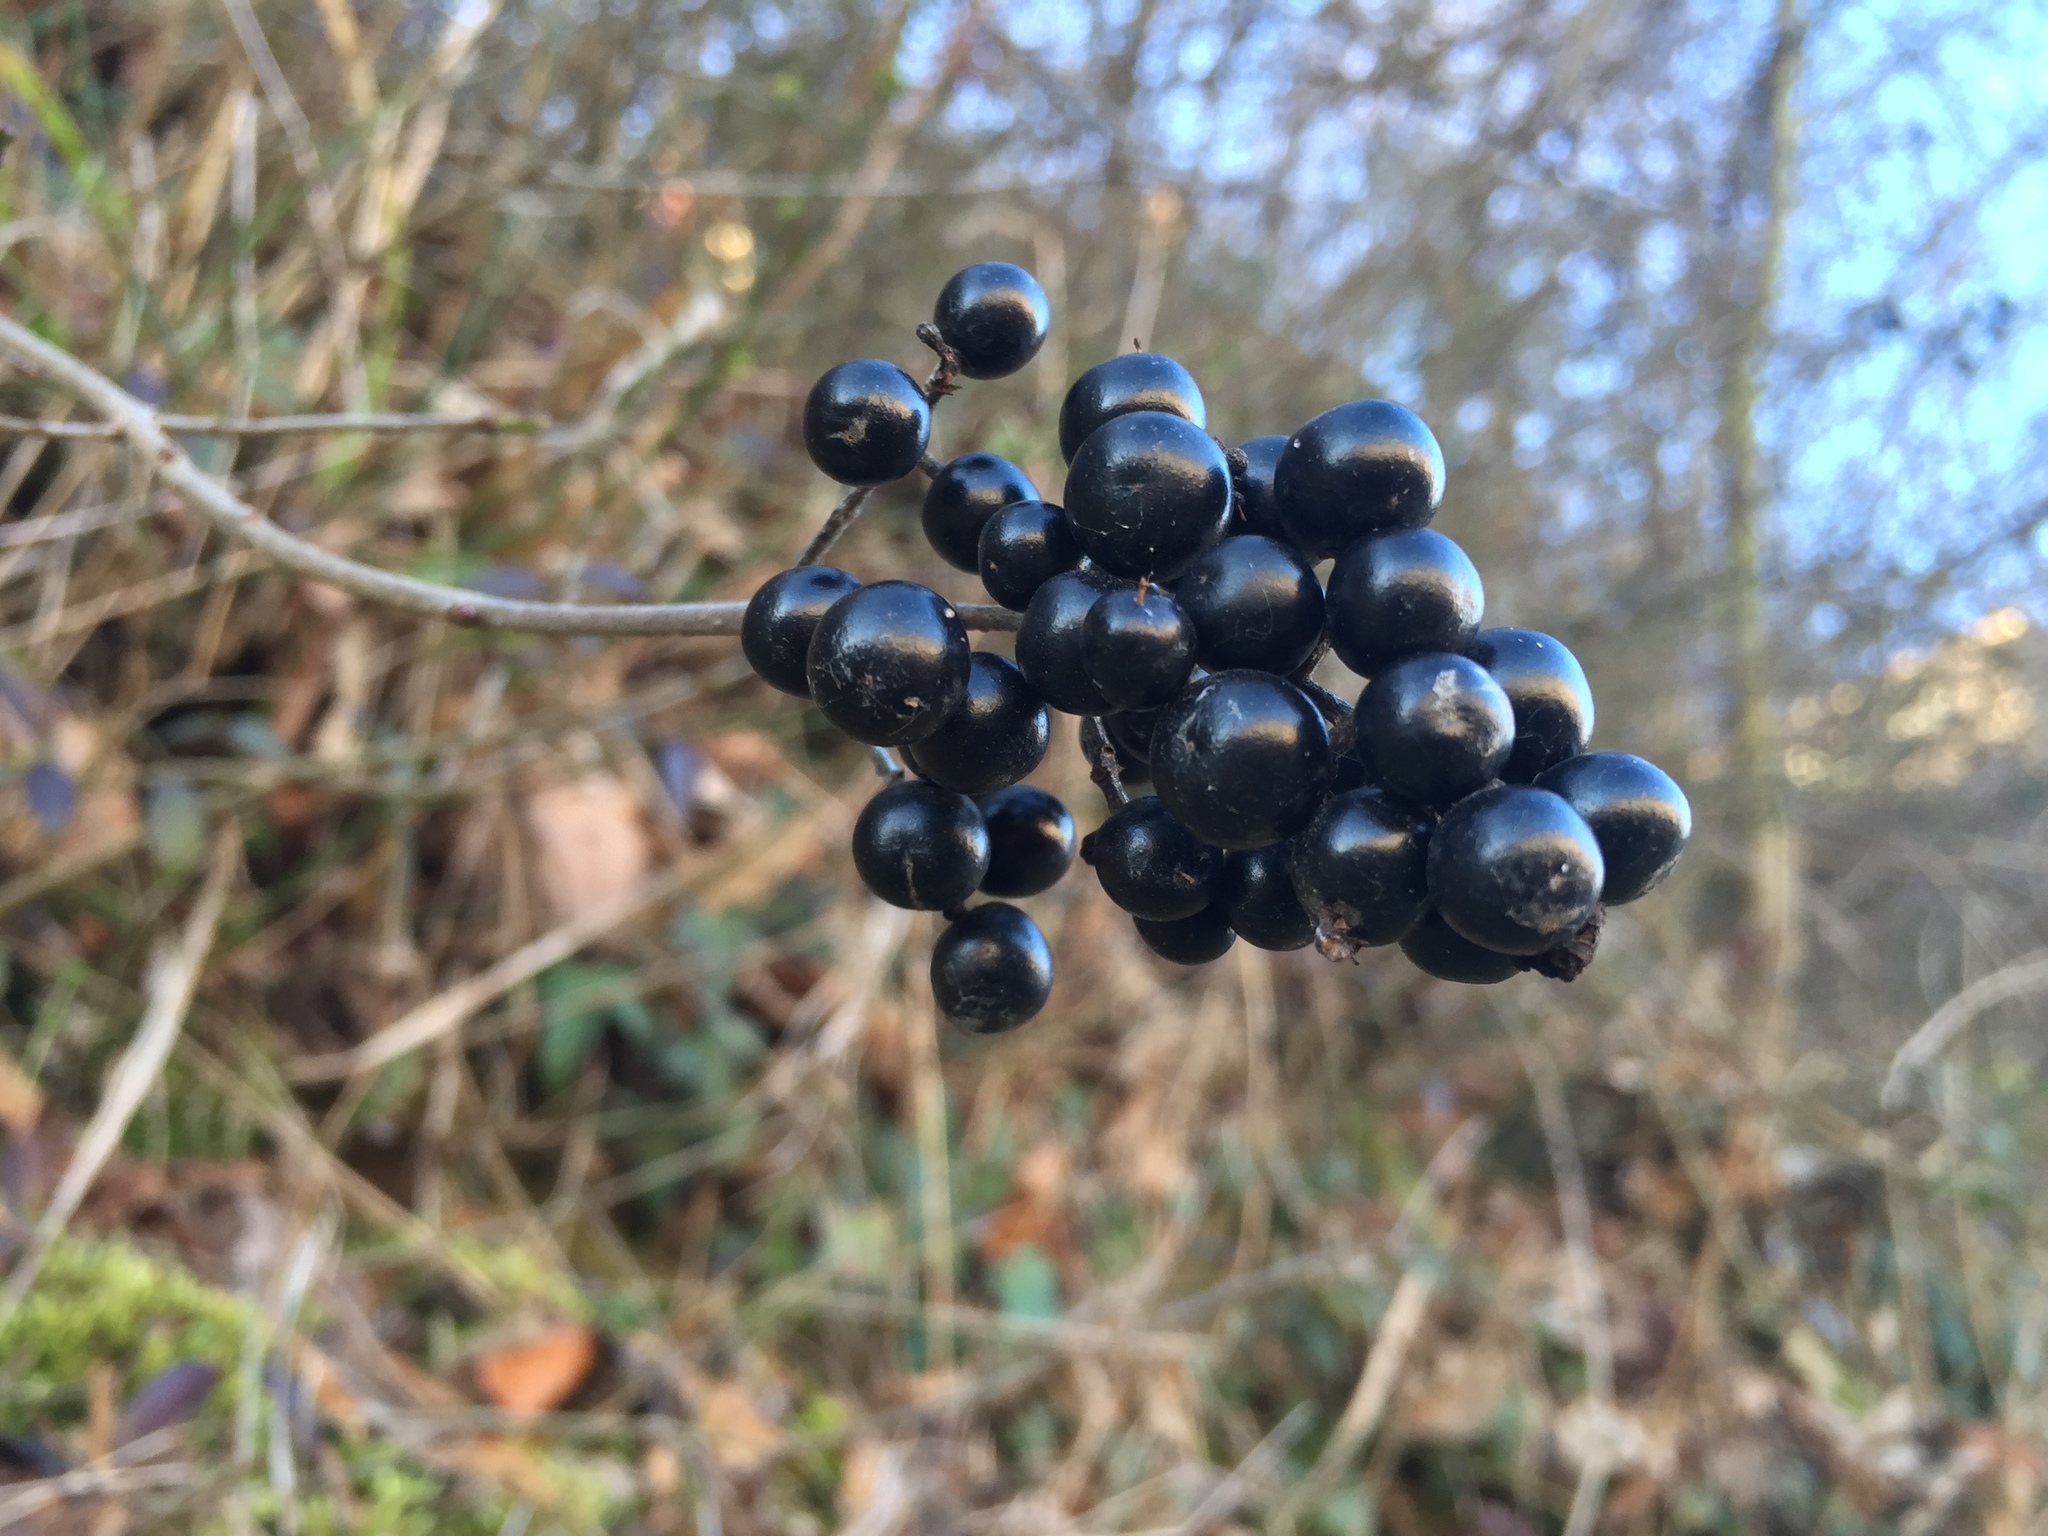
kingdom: Plantae
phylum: Tracheophyta
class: Magnoliopsida
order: Lamiales
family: Oleaceae
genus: Ligustrum
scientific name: Ligustrum vulgare
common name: Wild privet
